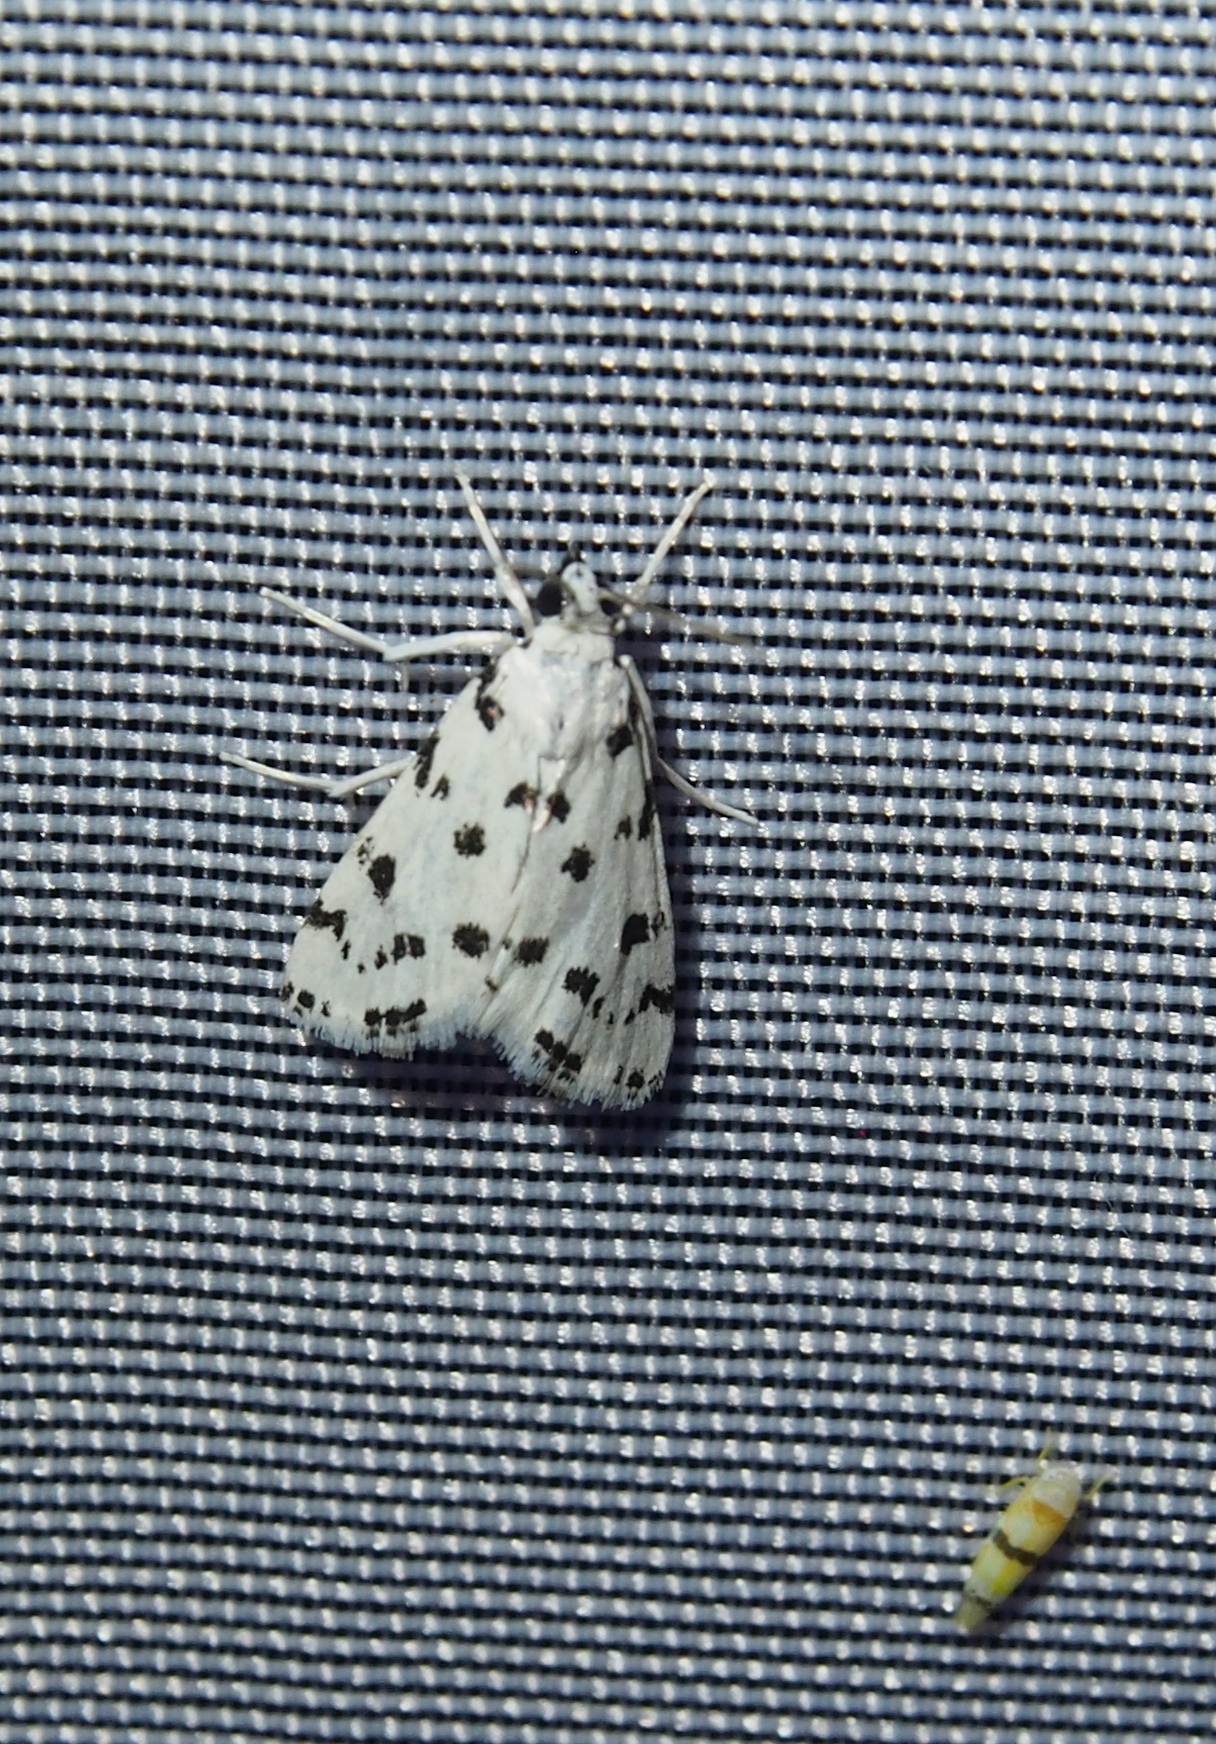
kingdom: Animalia
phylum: Arthropoda
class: Insecta
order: Lepidoptera
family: Crambidae
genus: Eustixia
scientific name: Eustixia pupula
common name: American cabbage pearl
